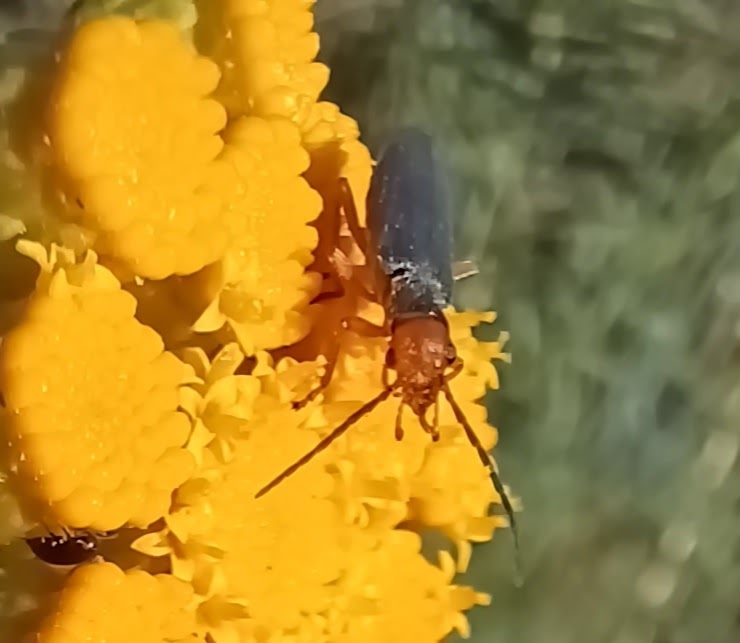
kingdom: Animalia
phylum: Arthropoda
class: Insecta
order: Coleoptera
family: Oedemeridae
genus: Melananthia
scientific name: Melananthia
